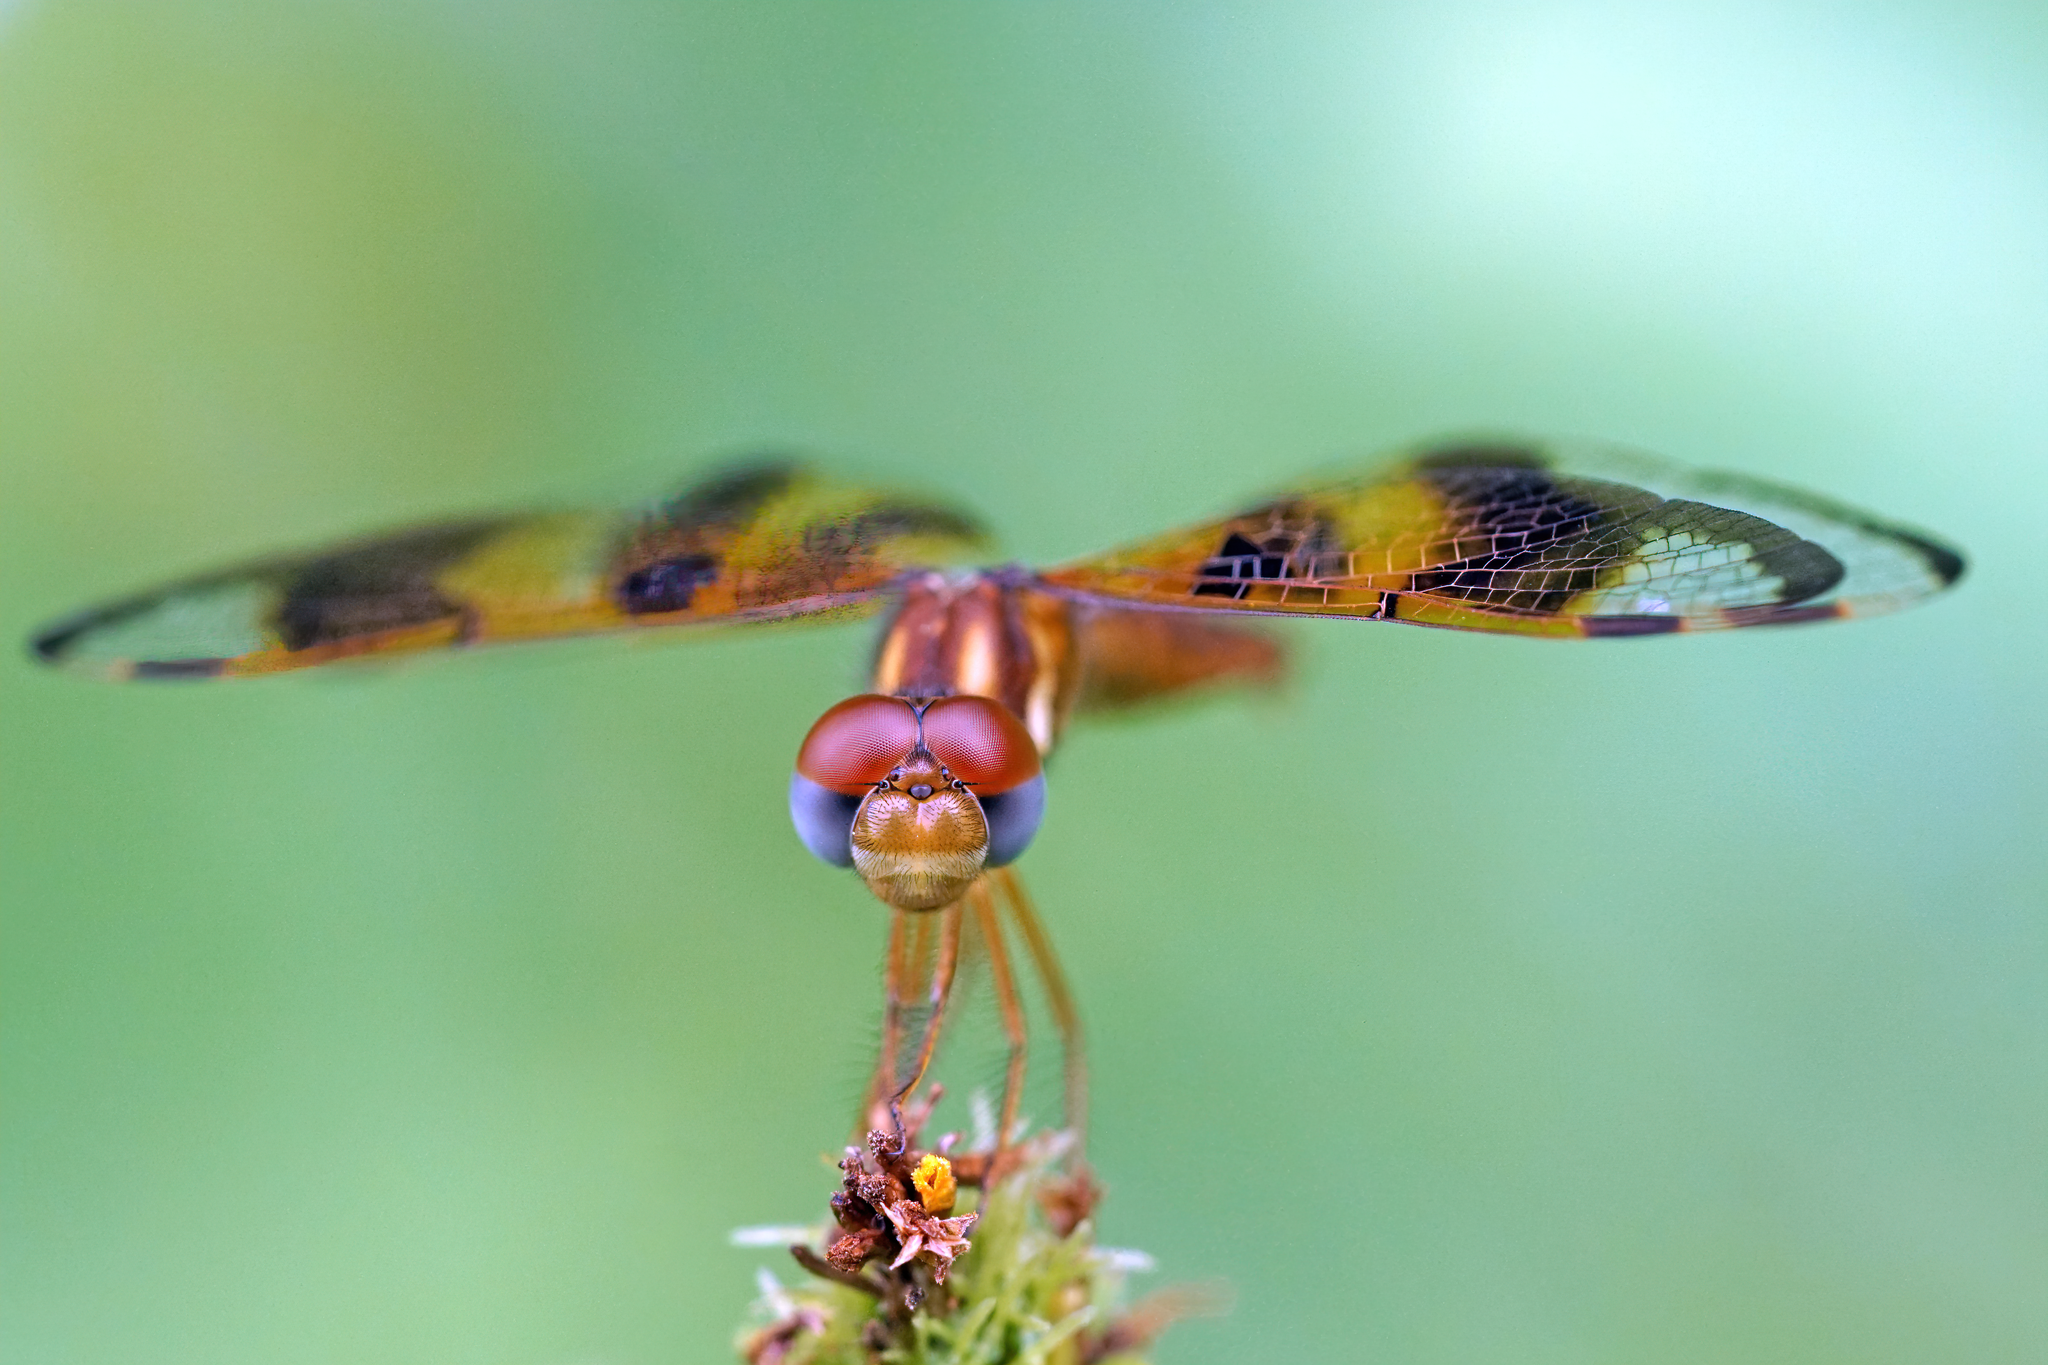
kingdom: Animalia
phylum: Arthropoda
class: Insecta
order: Odonata
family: Libellulidae
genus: Perithemis
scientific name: Perithemis tenera
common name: Eastern amberwing
